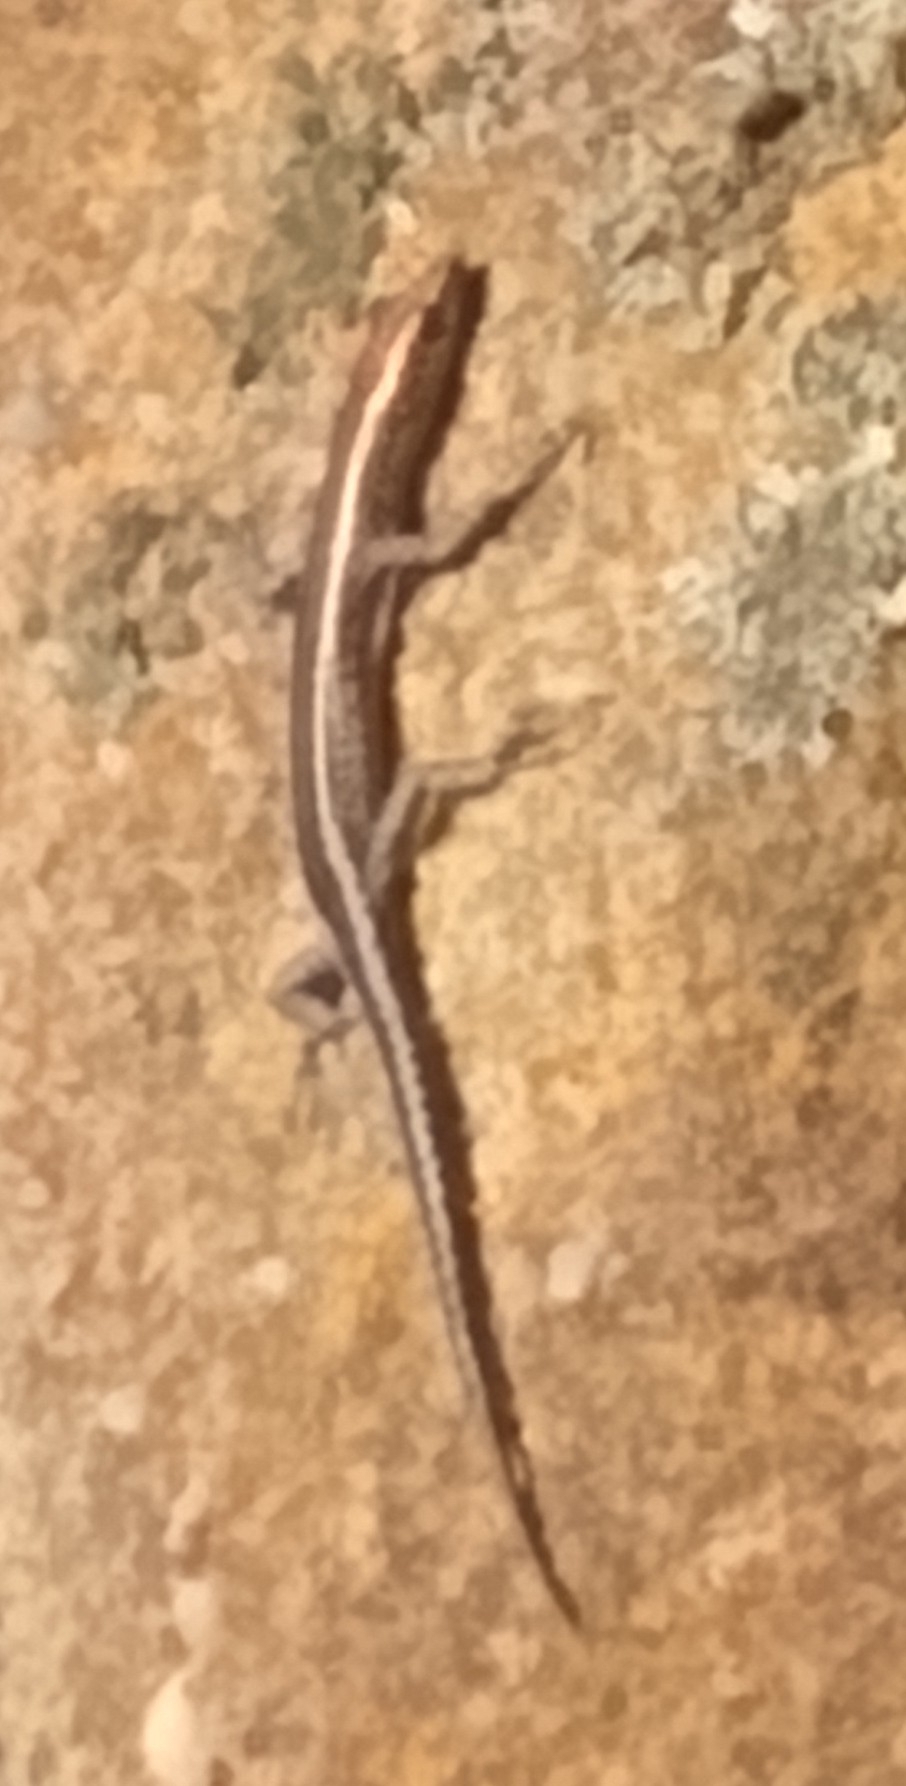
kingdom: Animalia
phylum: Chordata
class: Squamata
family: Scincidae
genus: Cryptoblepharus
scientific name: Cryptoblepharus pulcher
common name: Elegant snake-eyed skink
